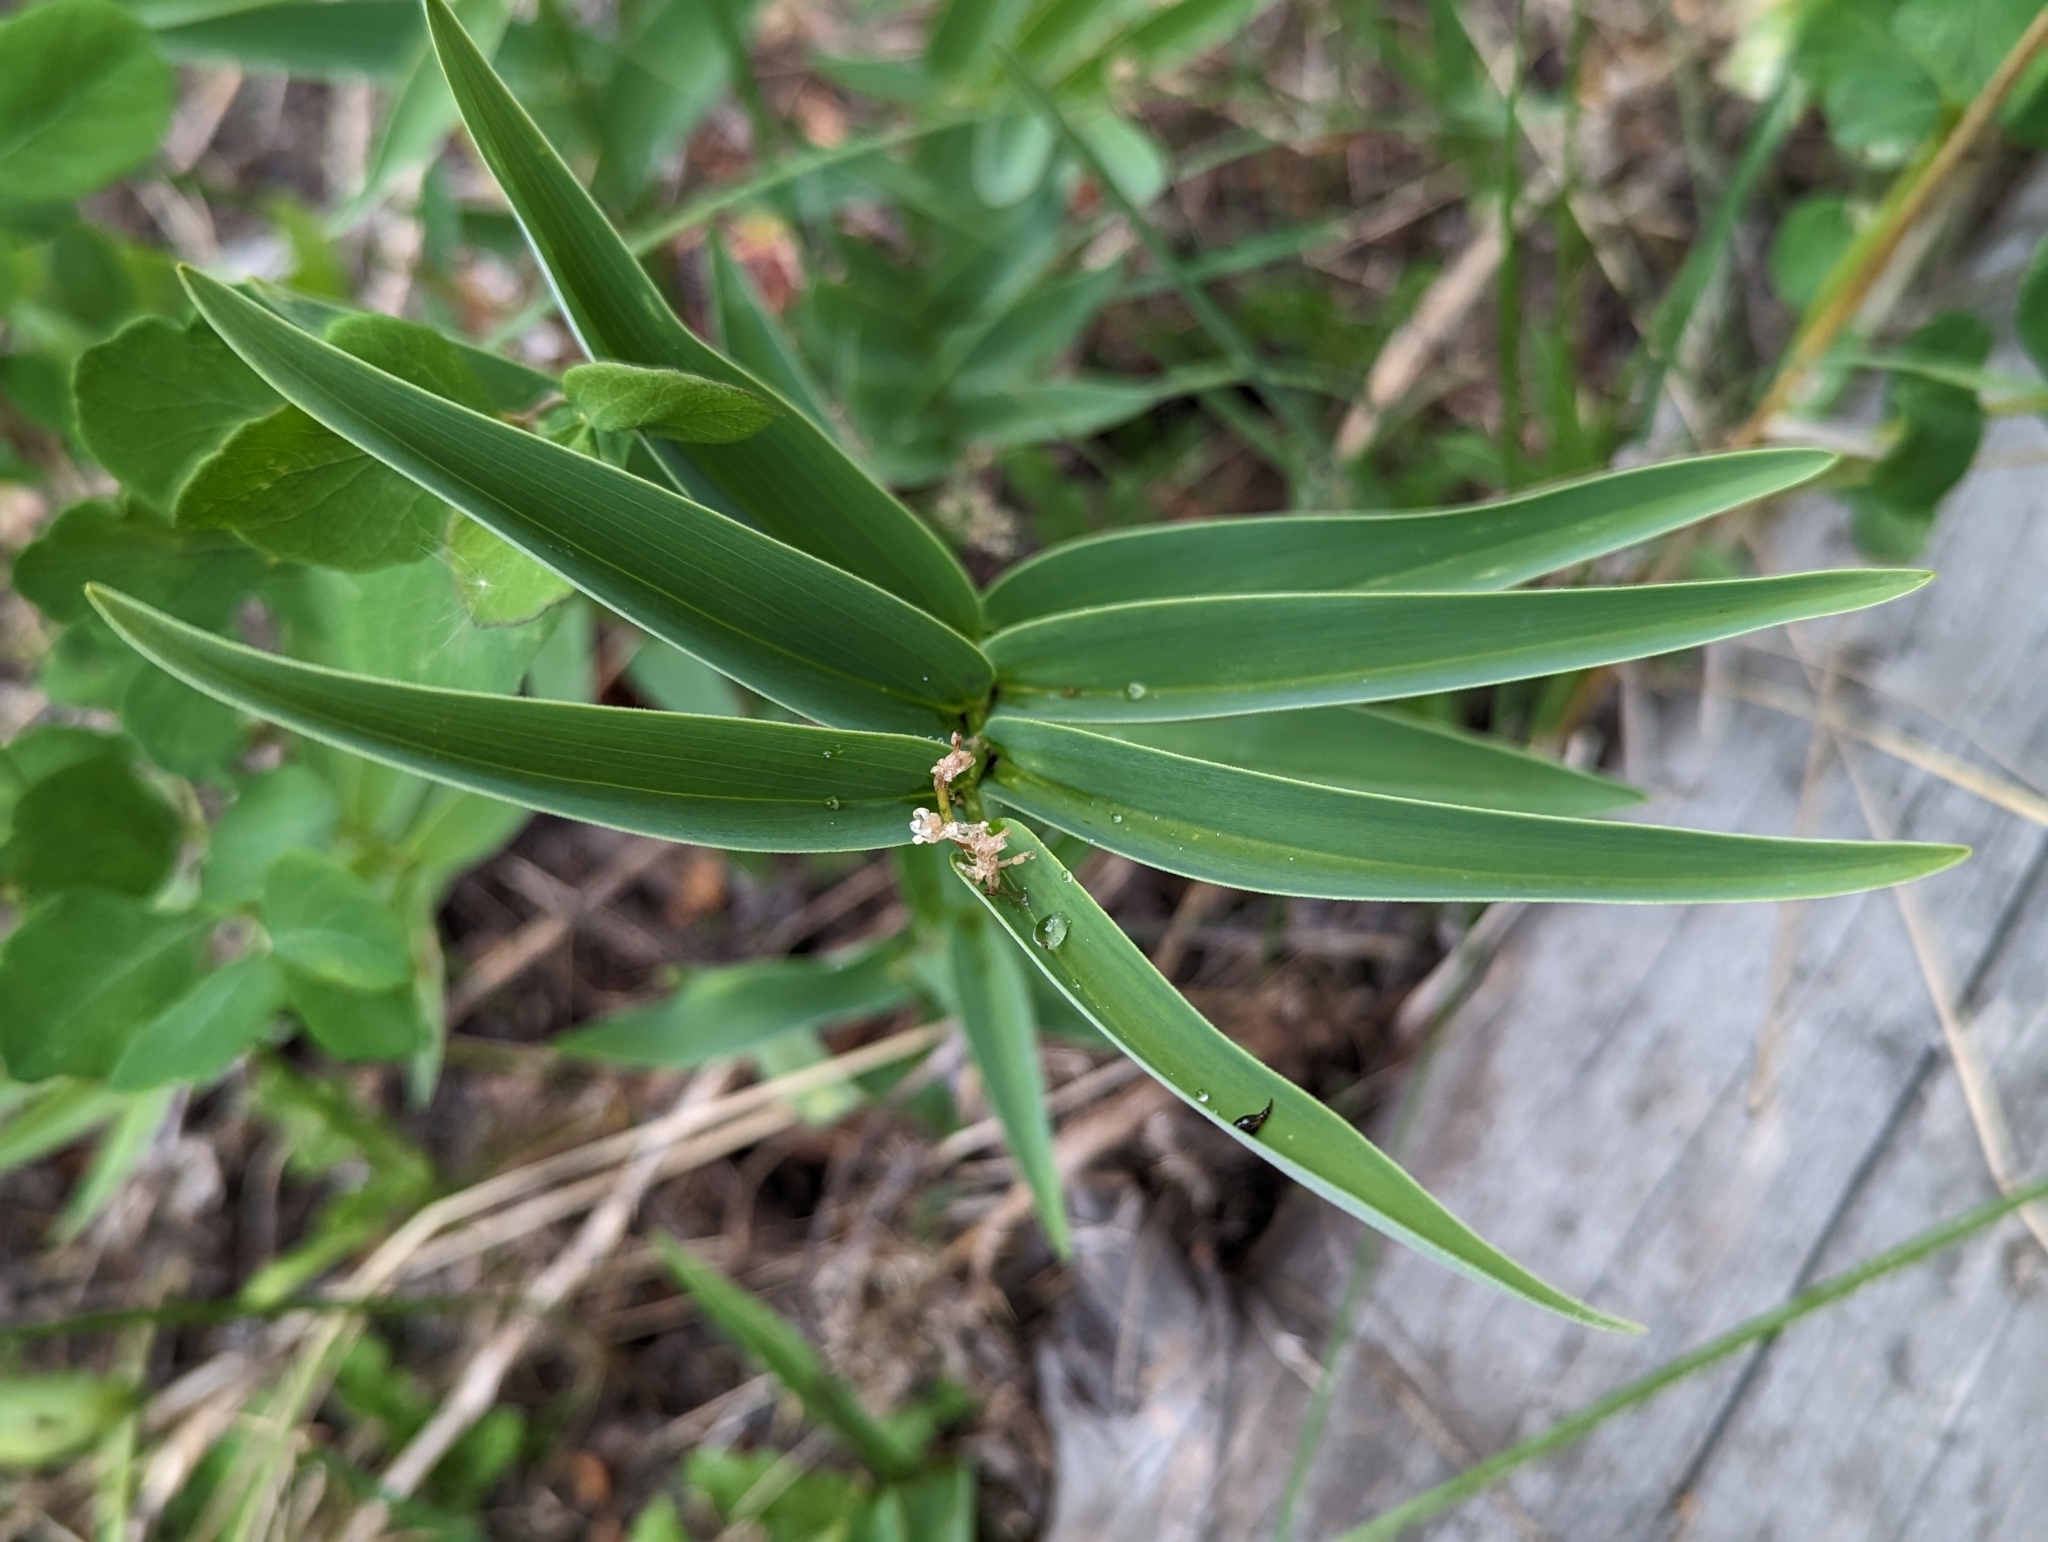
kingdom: Plantae
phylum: Tracheophyta
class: Liliopsida
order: Asparagales
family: Asparagaceae
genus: Maianthemum
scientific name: Maianthemum stellatum
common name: Little false solomon's seal
